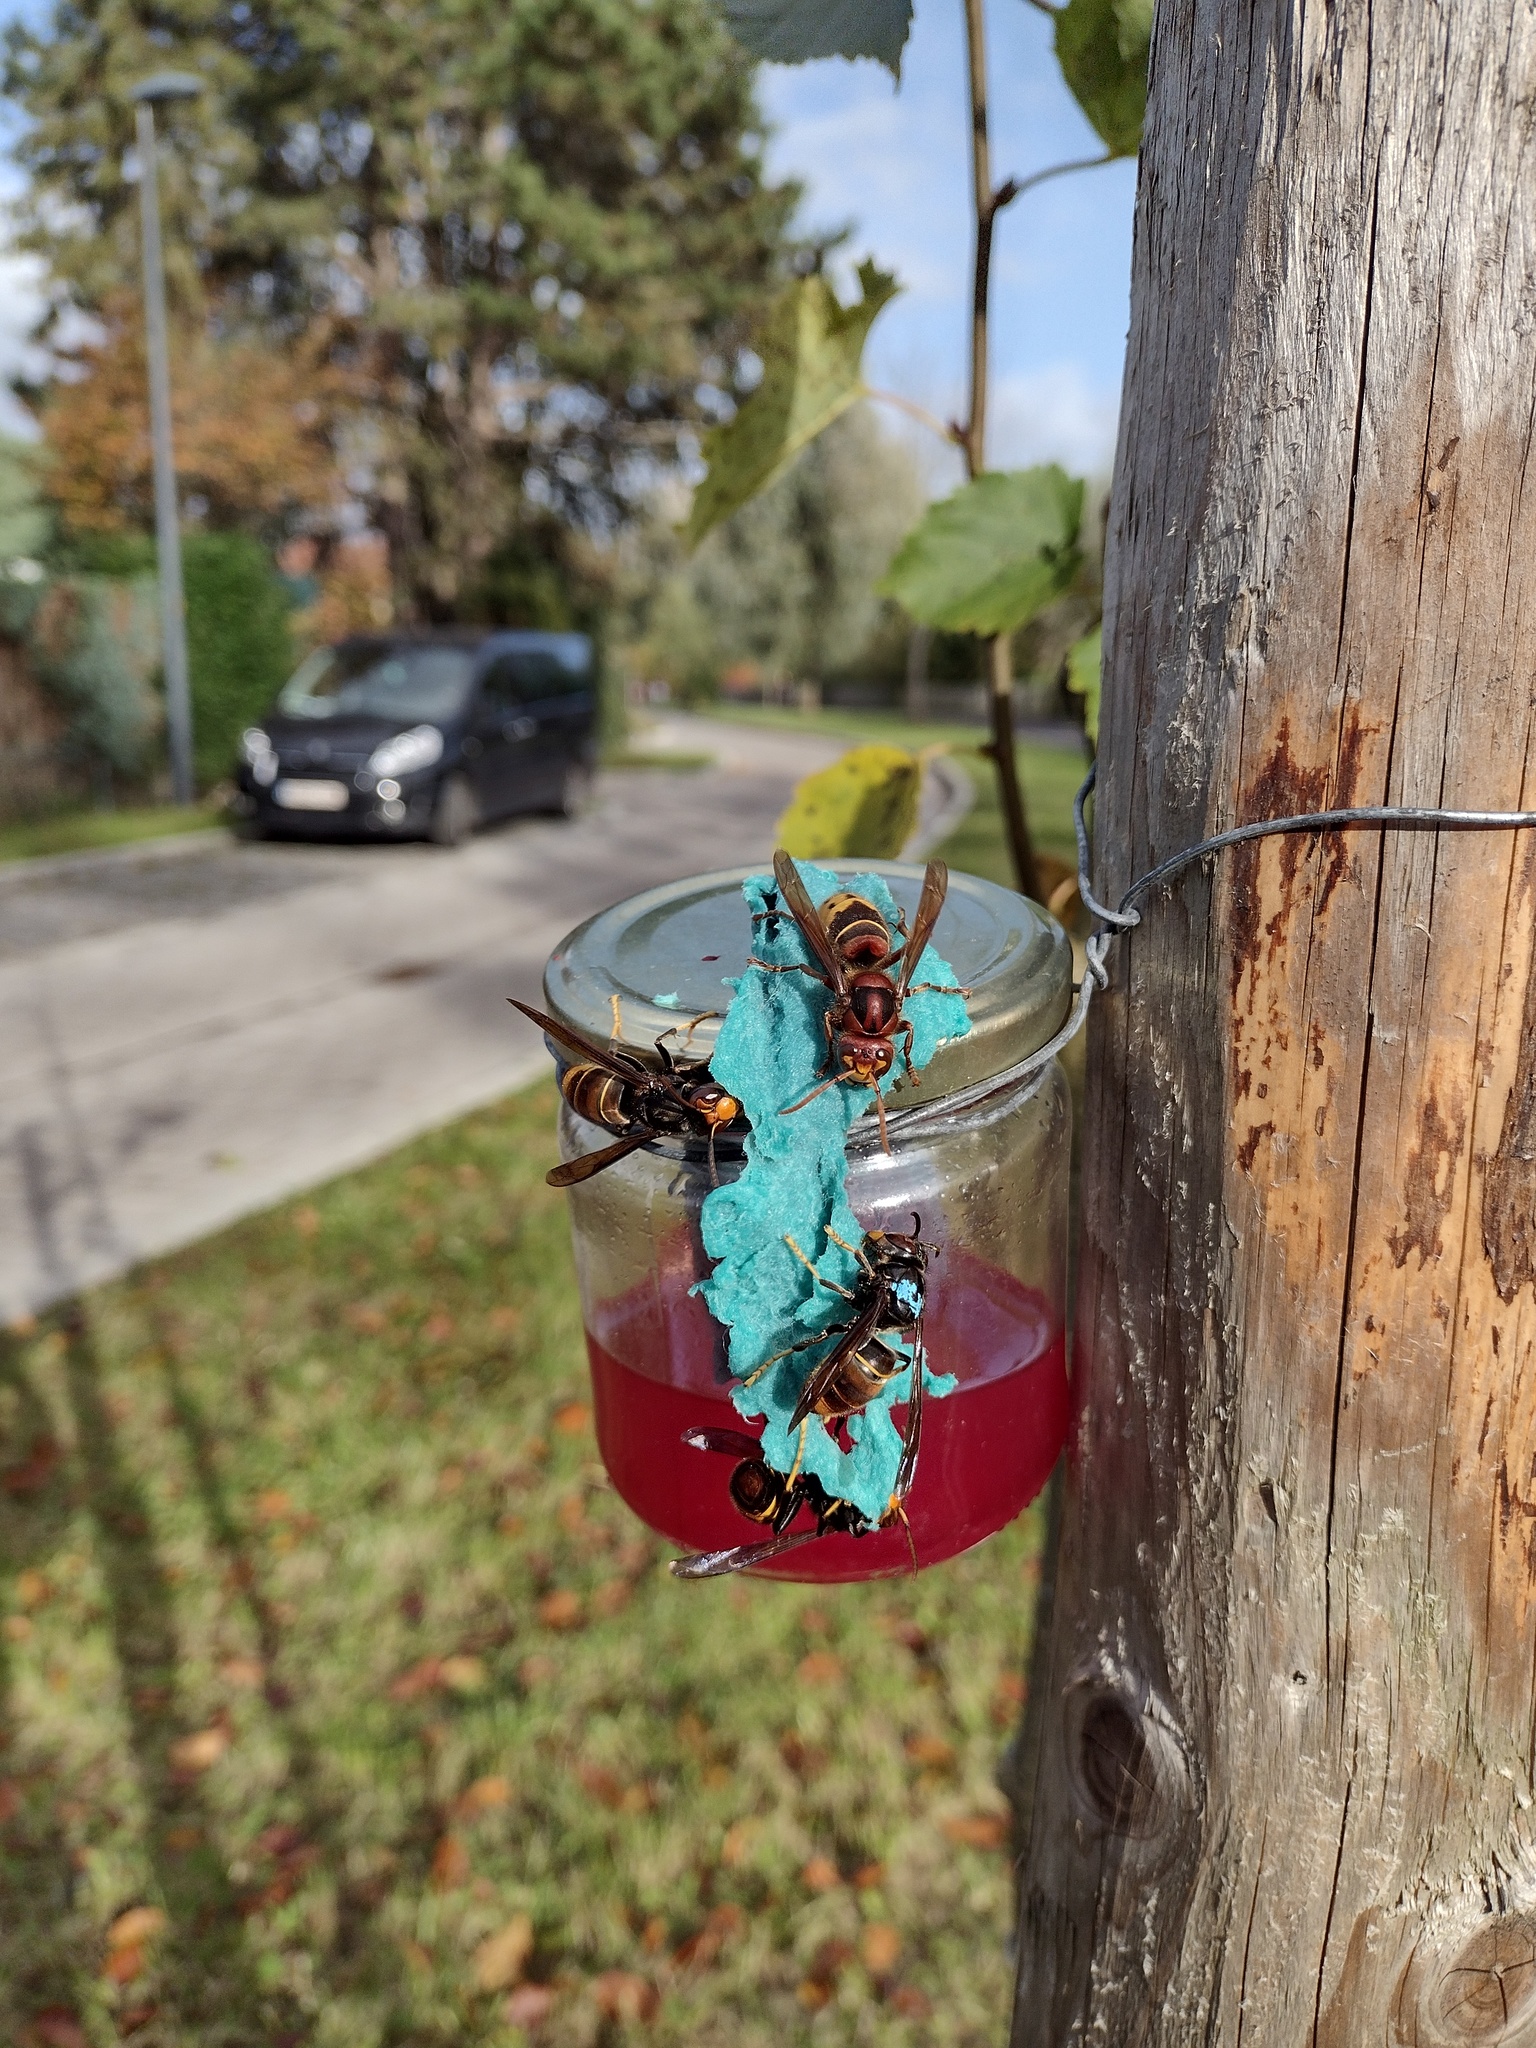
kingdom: Animalia
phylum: Arthropoda
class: Insecta
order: Hymenoptera
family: Vespidae
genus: Vespa
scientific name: Vespa velutina
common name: Asian hornet
